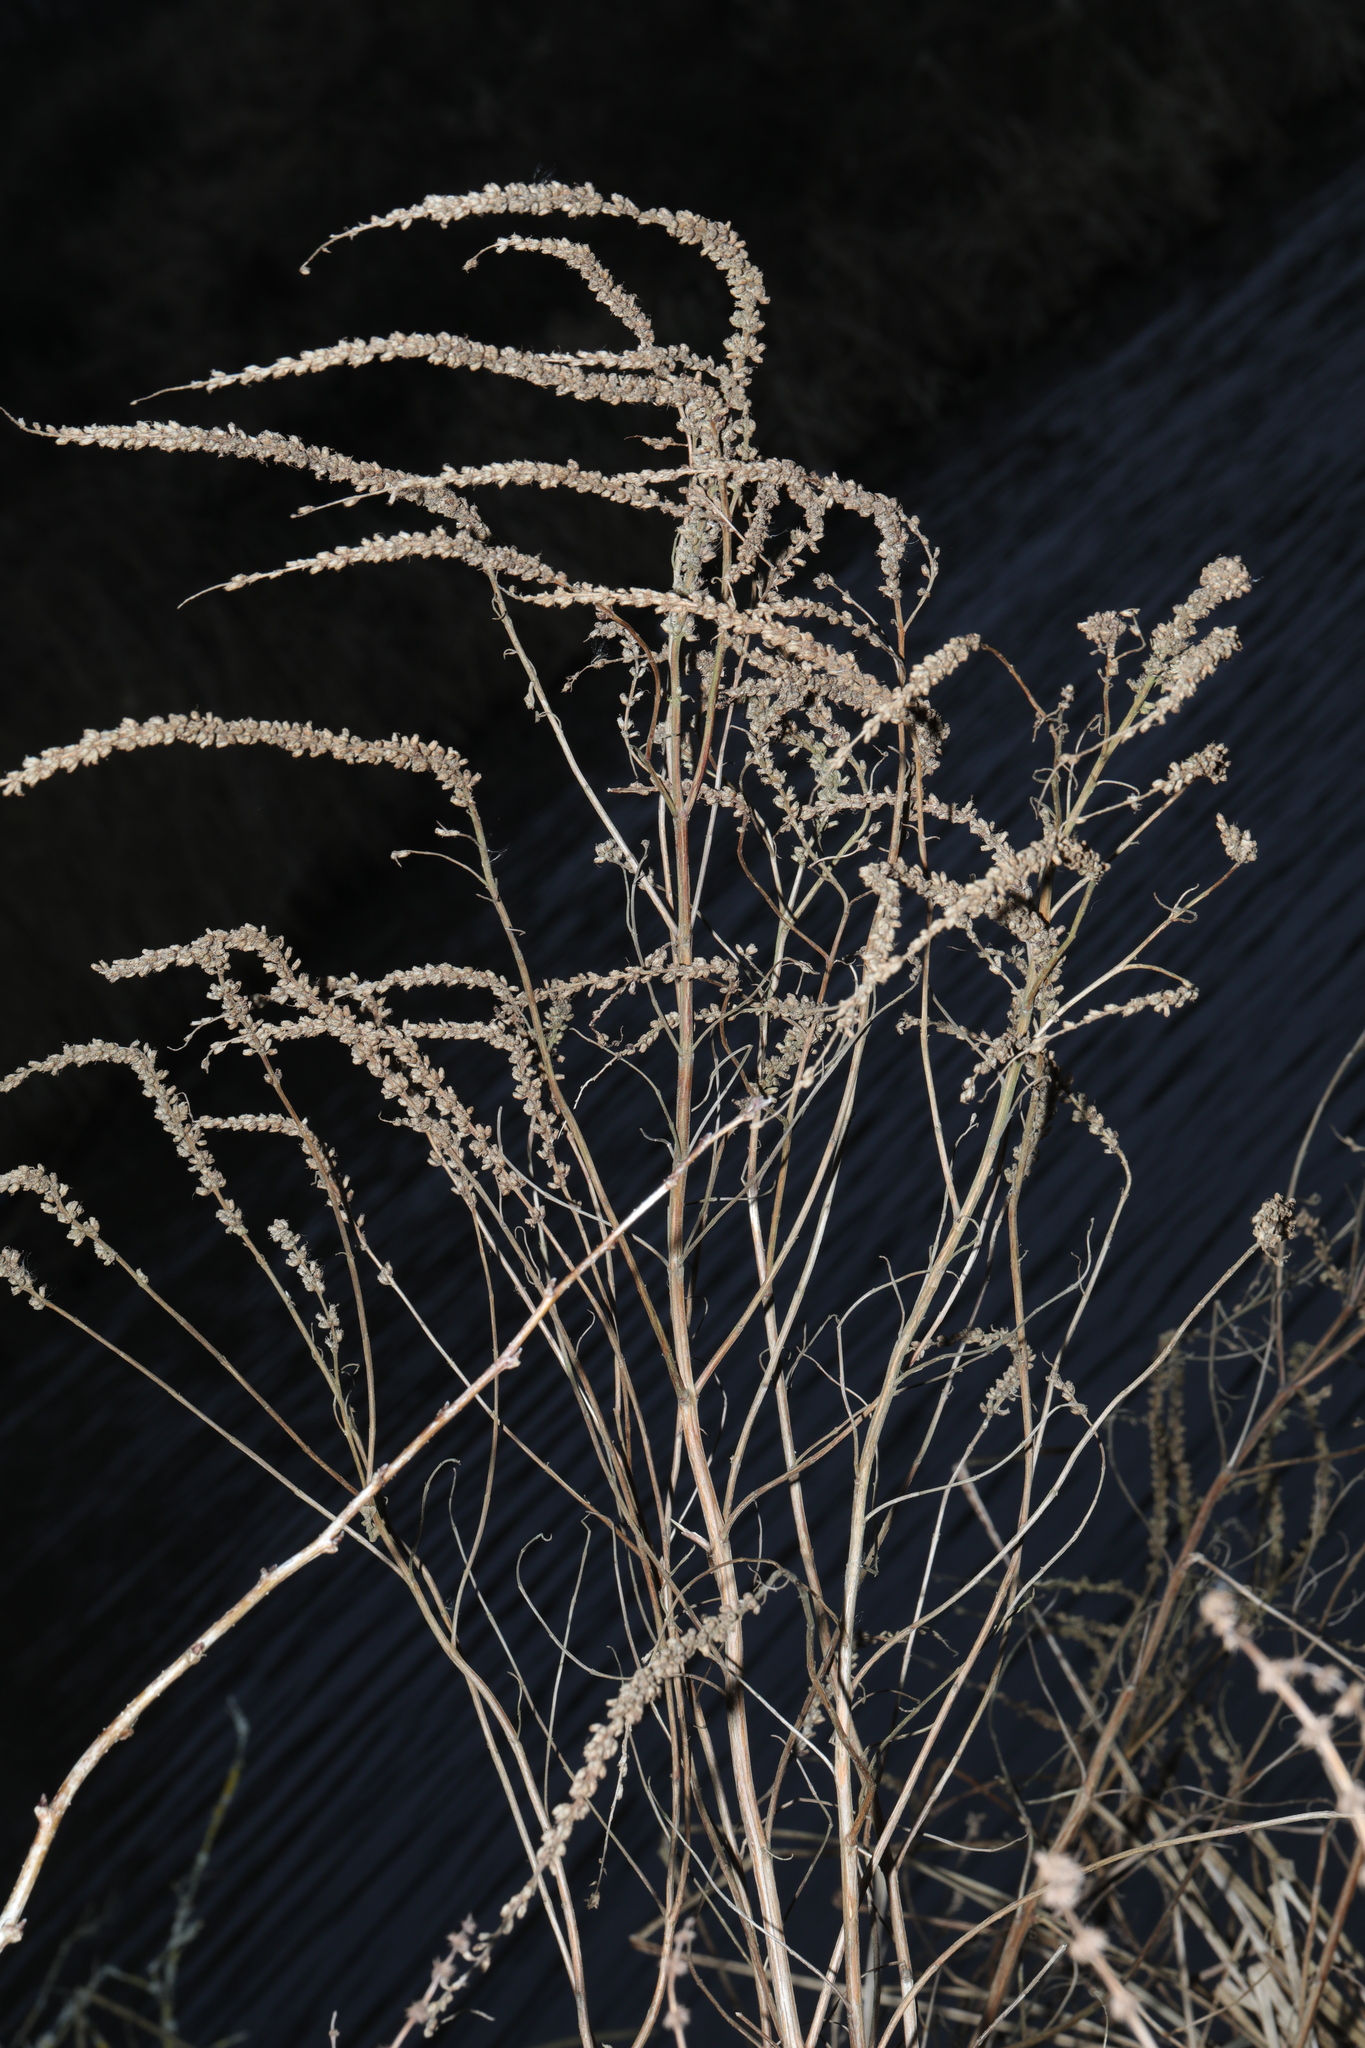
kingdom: Plantae
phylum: Tracheophyta
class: Magnoliopsida
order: Myrtales
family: Lythraceae
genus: Lythrum
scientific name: Lythrum salicaria
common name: Purple loosestrife
